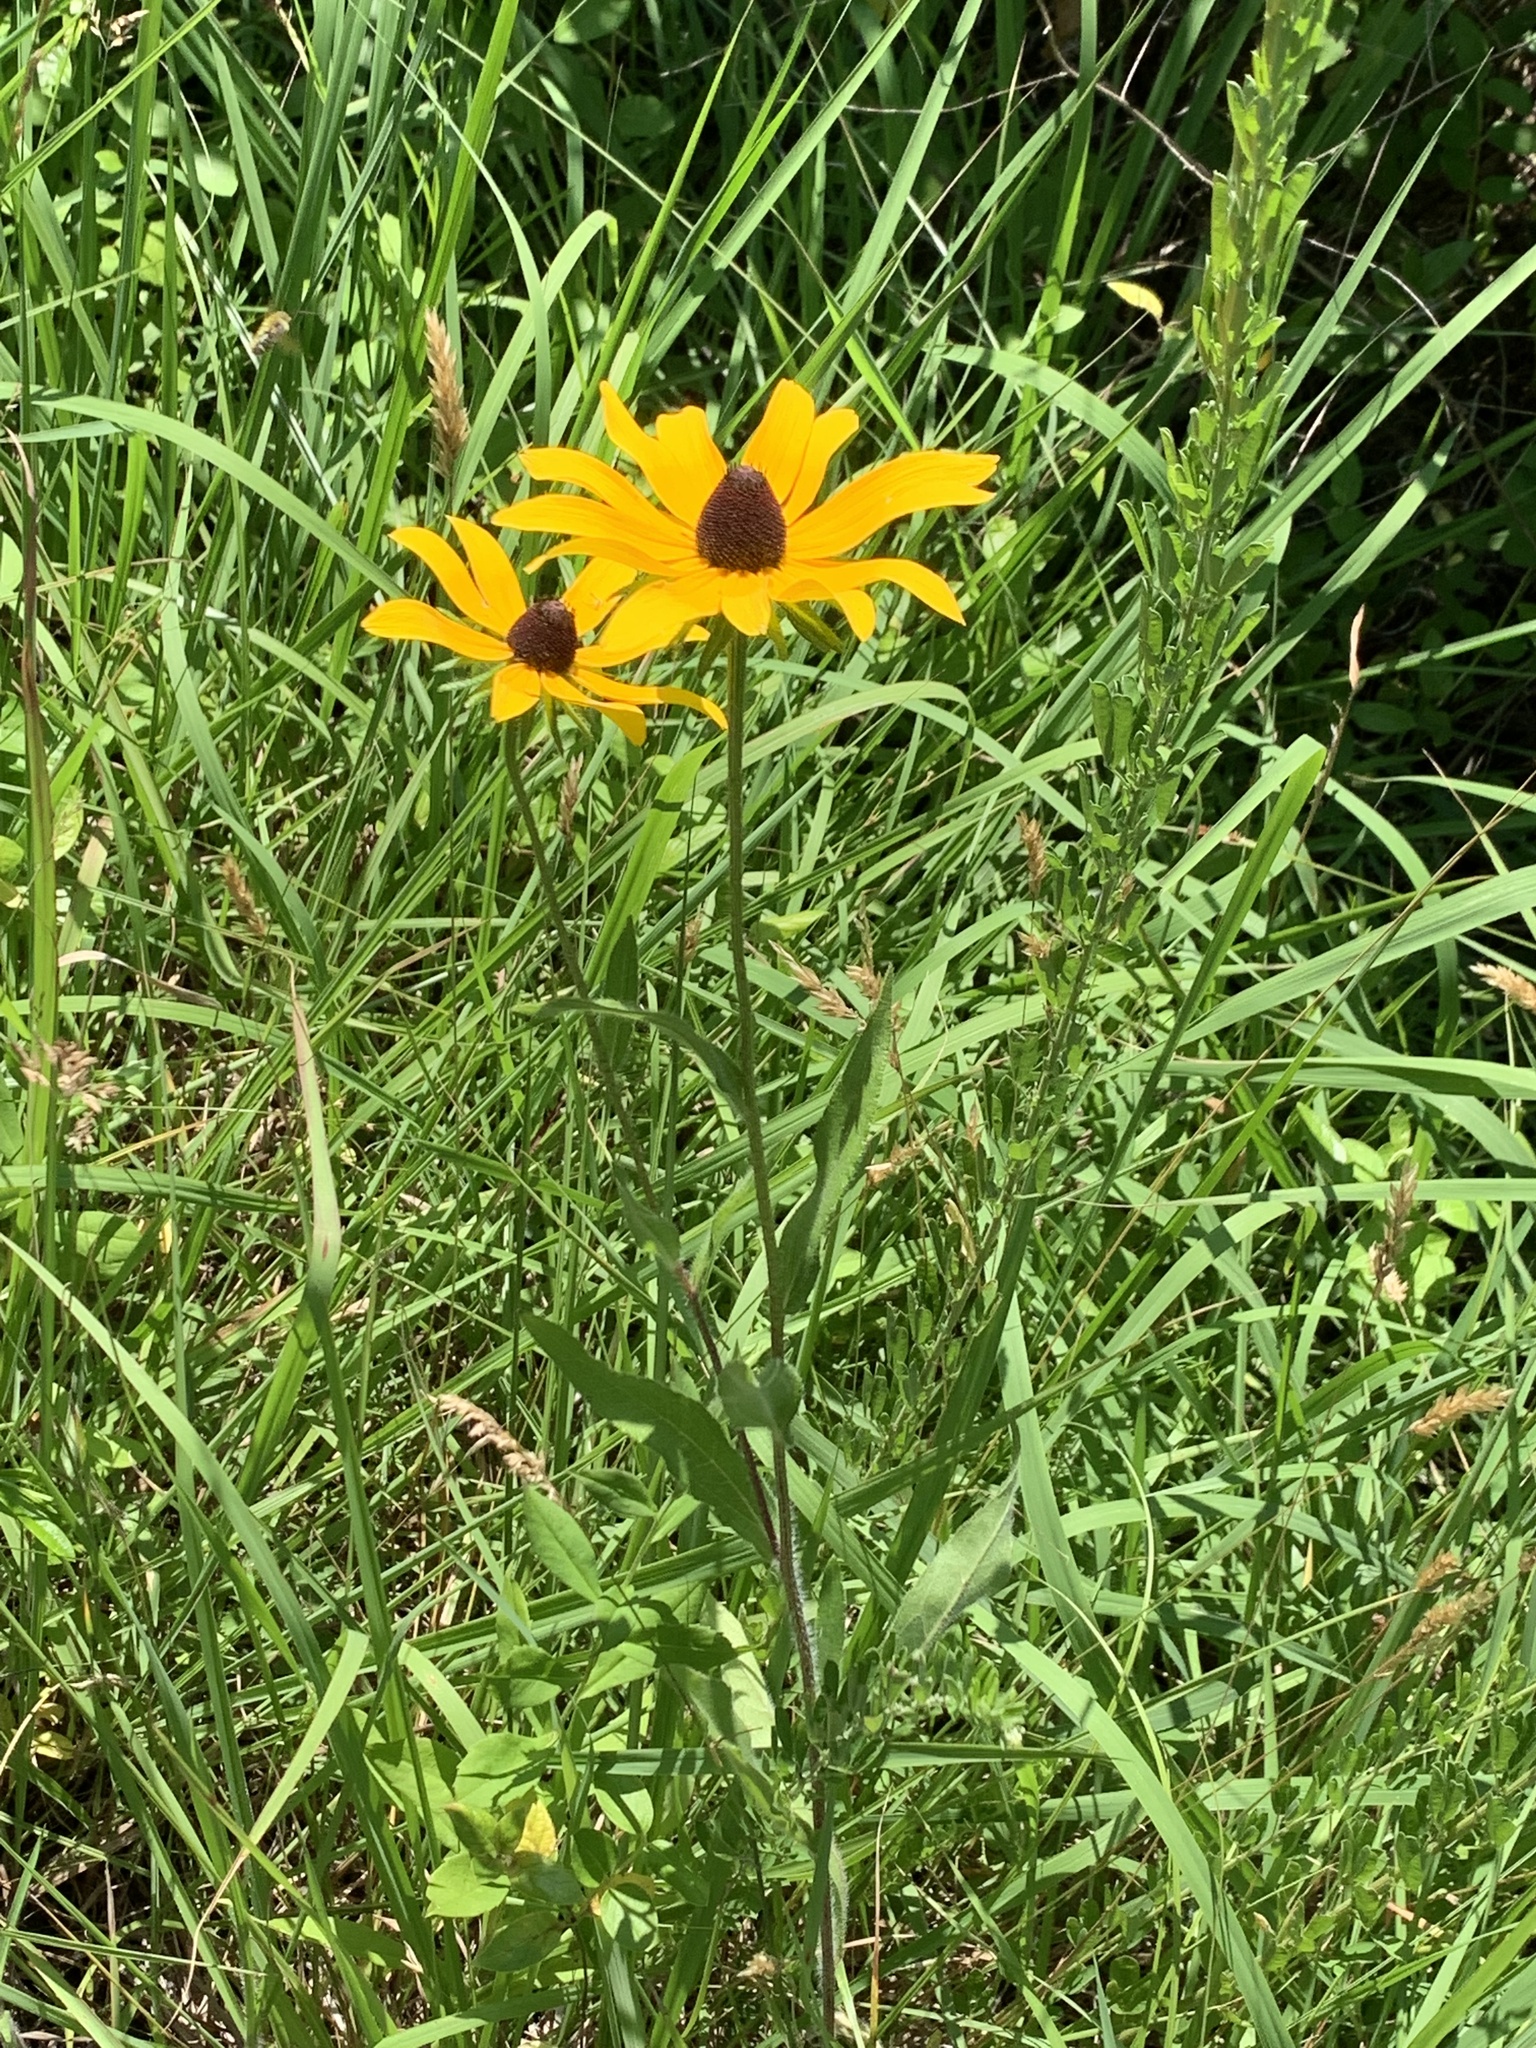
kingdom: Plantae
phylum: Tracheophyta
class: Magnoliopsida
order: Asterales
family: Asteraceae
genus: Rudbeckia
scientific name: Rudbeckia hirta
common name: Black-eyed-susan
